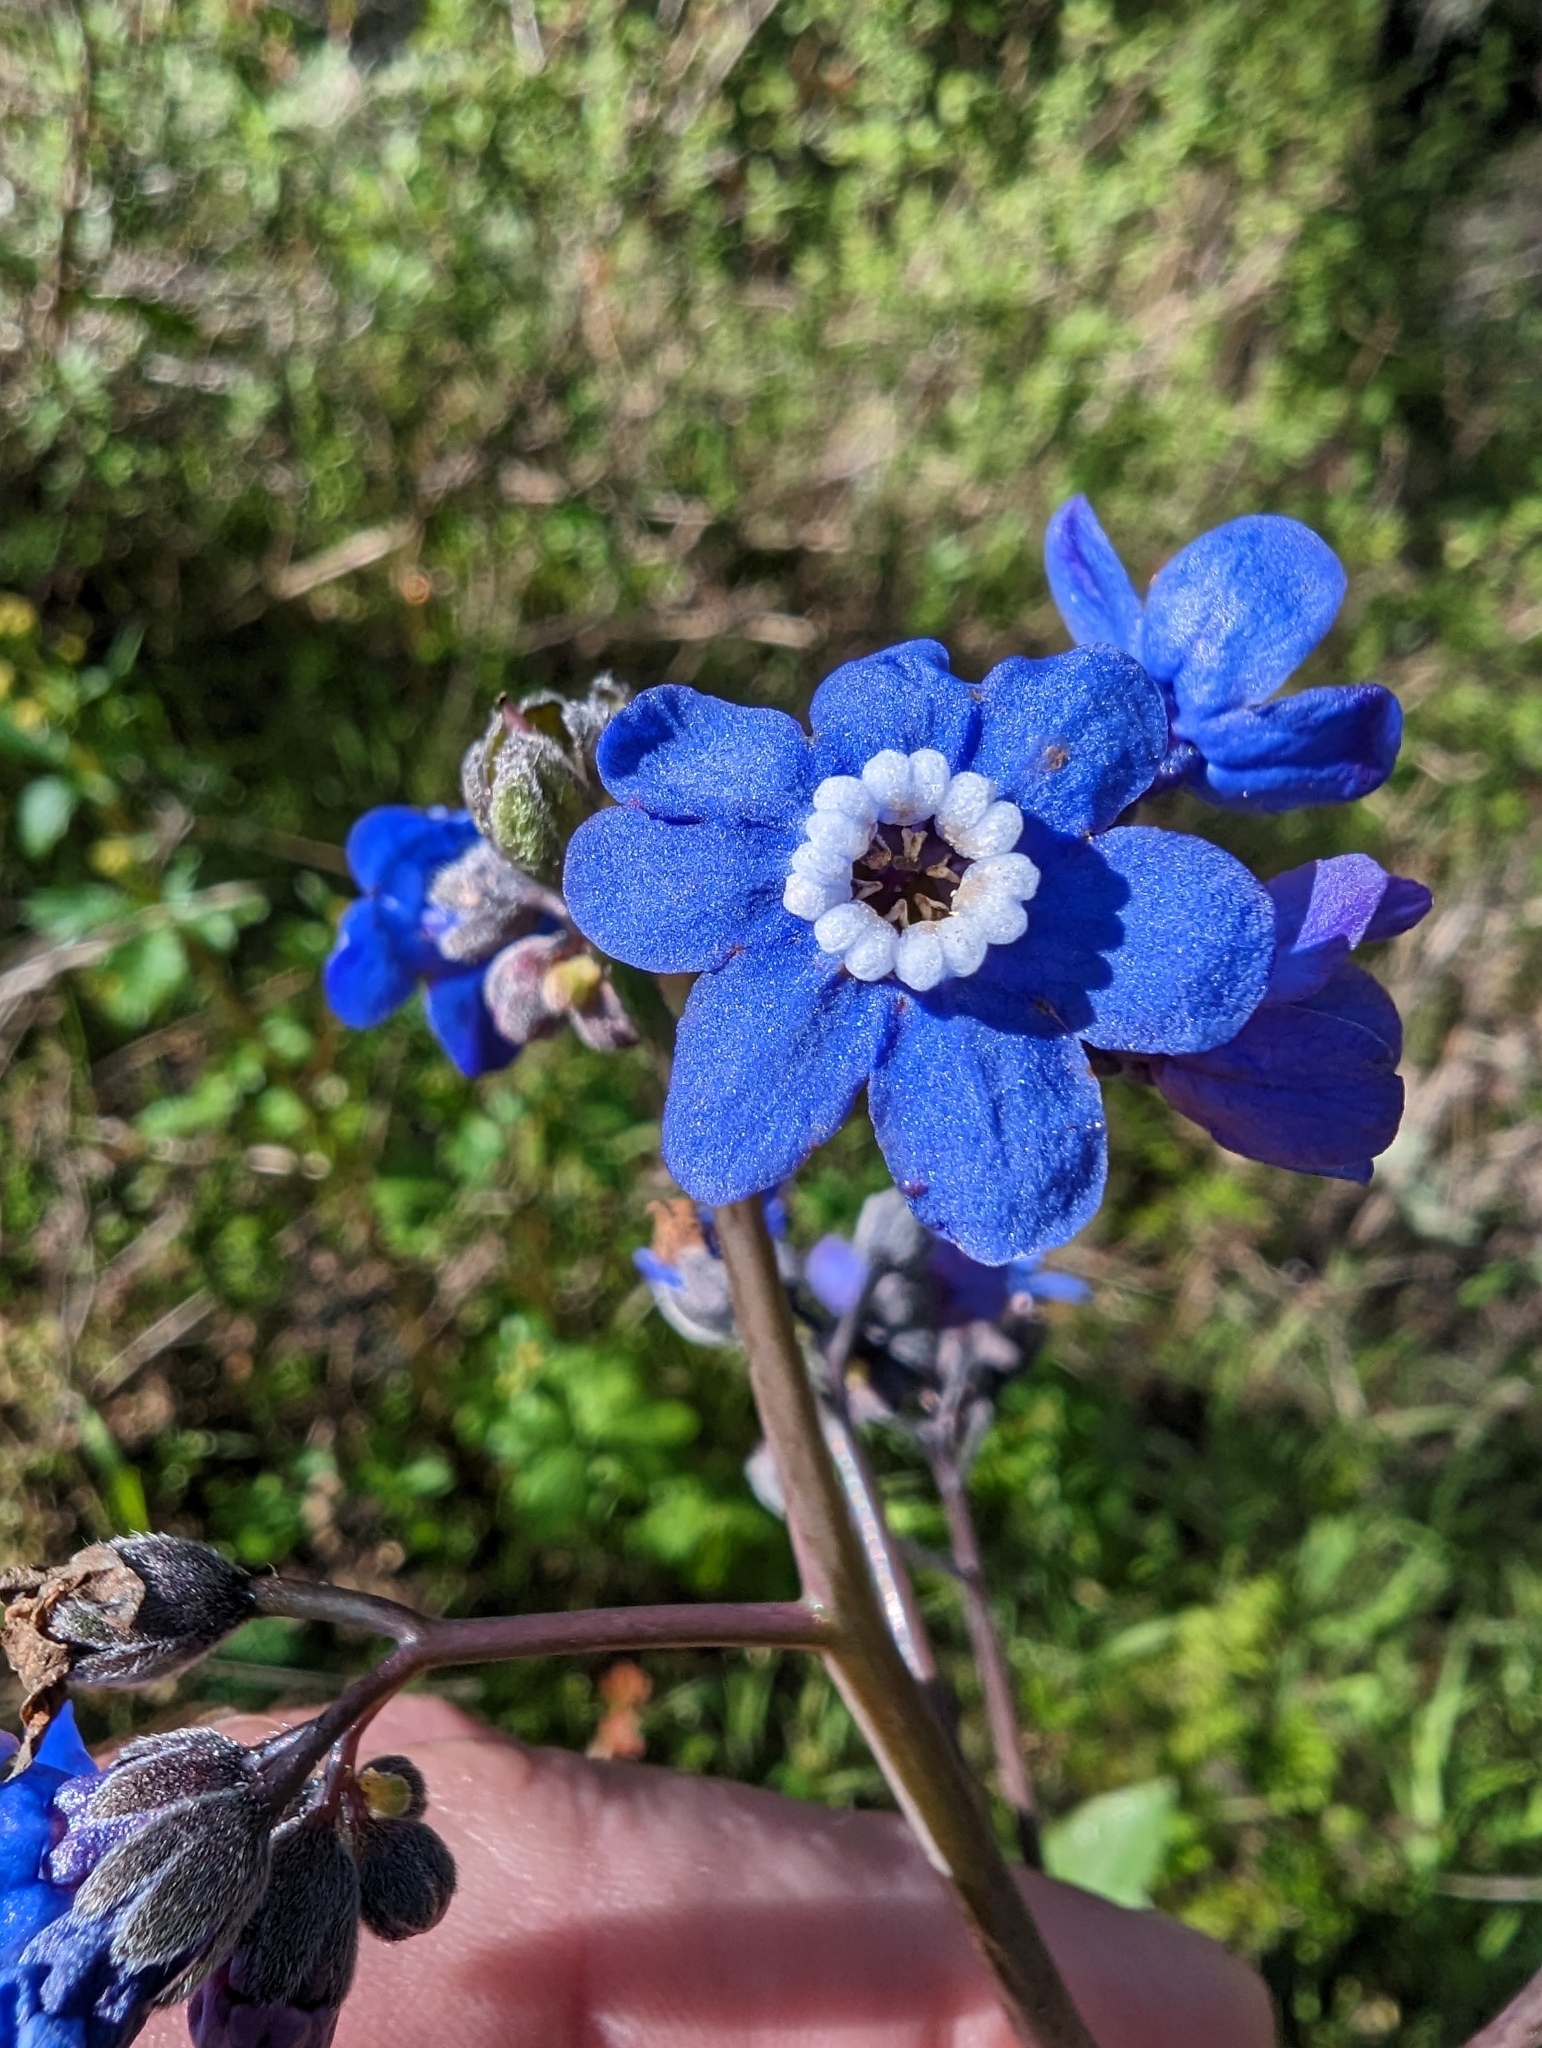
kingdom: Plantae
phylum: Tracheophyta
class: Magnoliopsida
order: Boraginales
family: Boraginaceae
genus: Adelinia
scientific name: Adelinia grande
